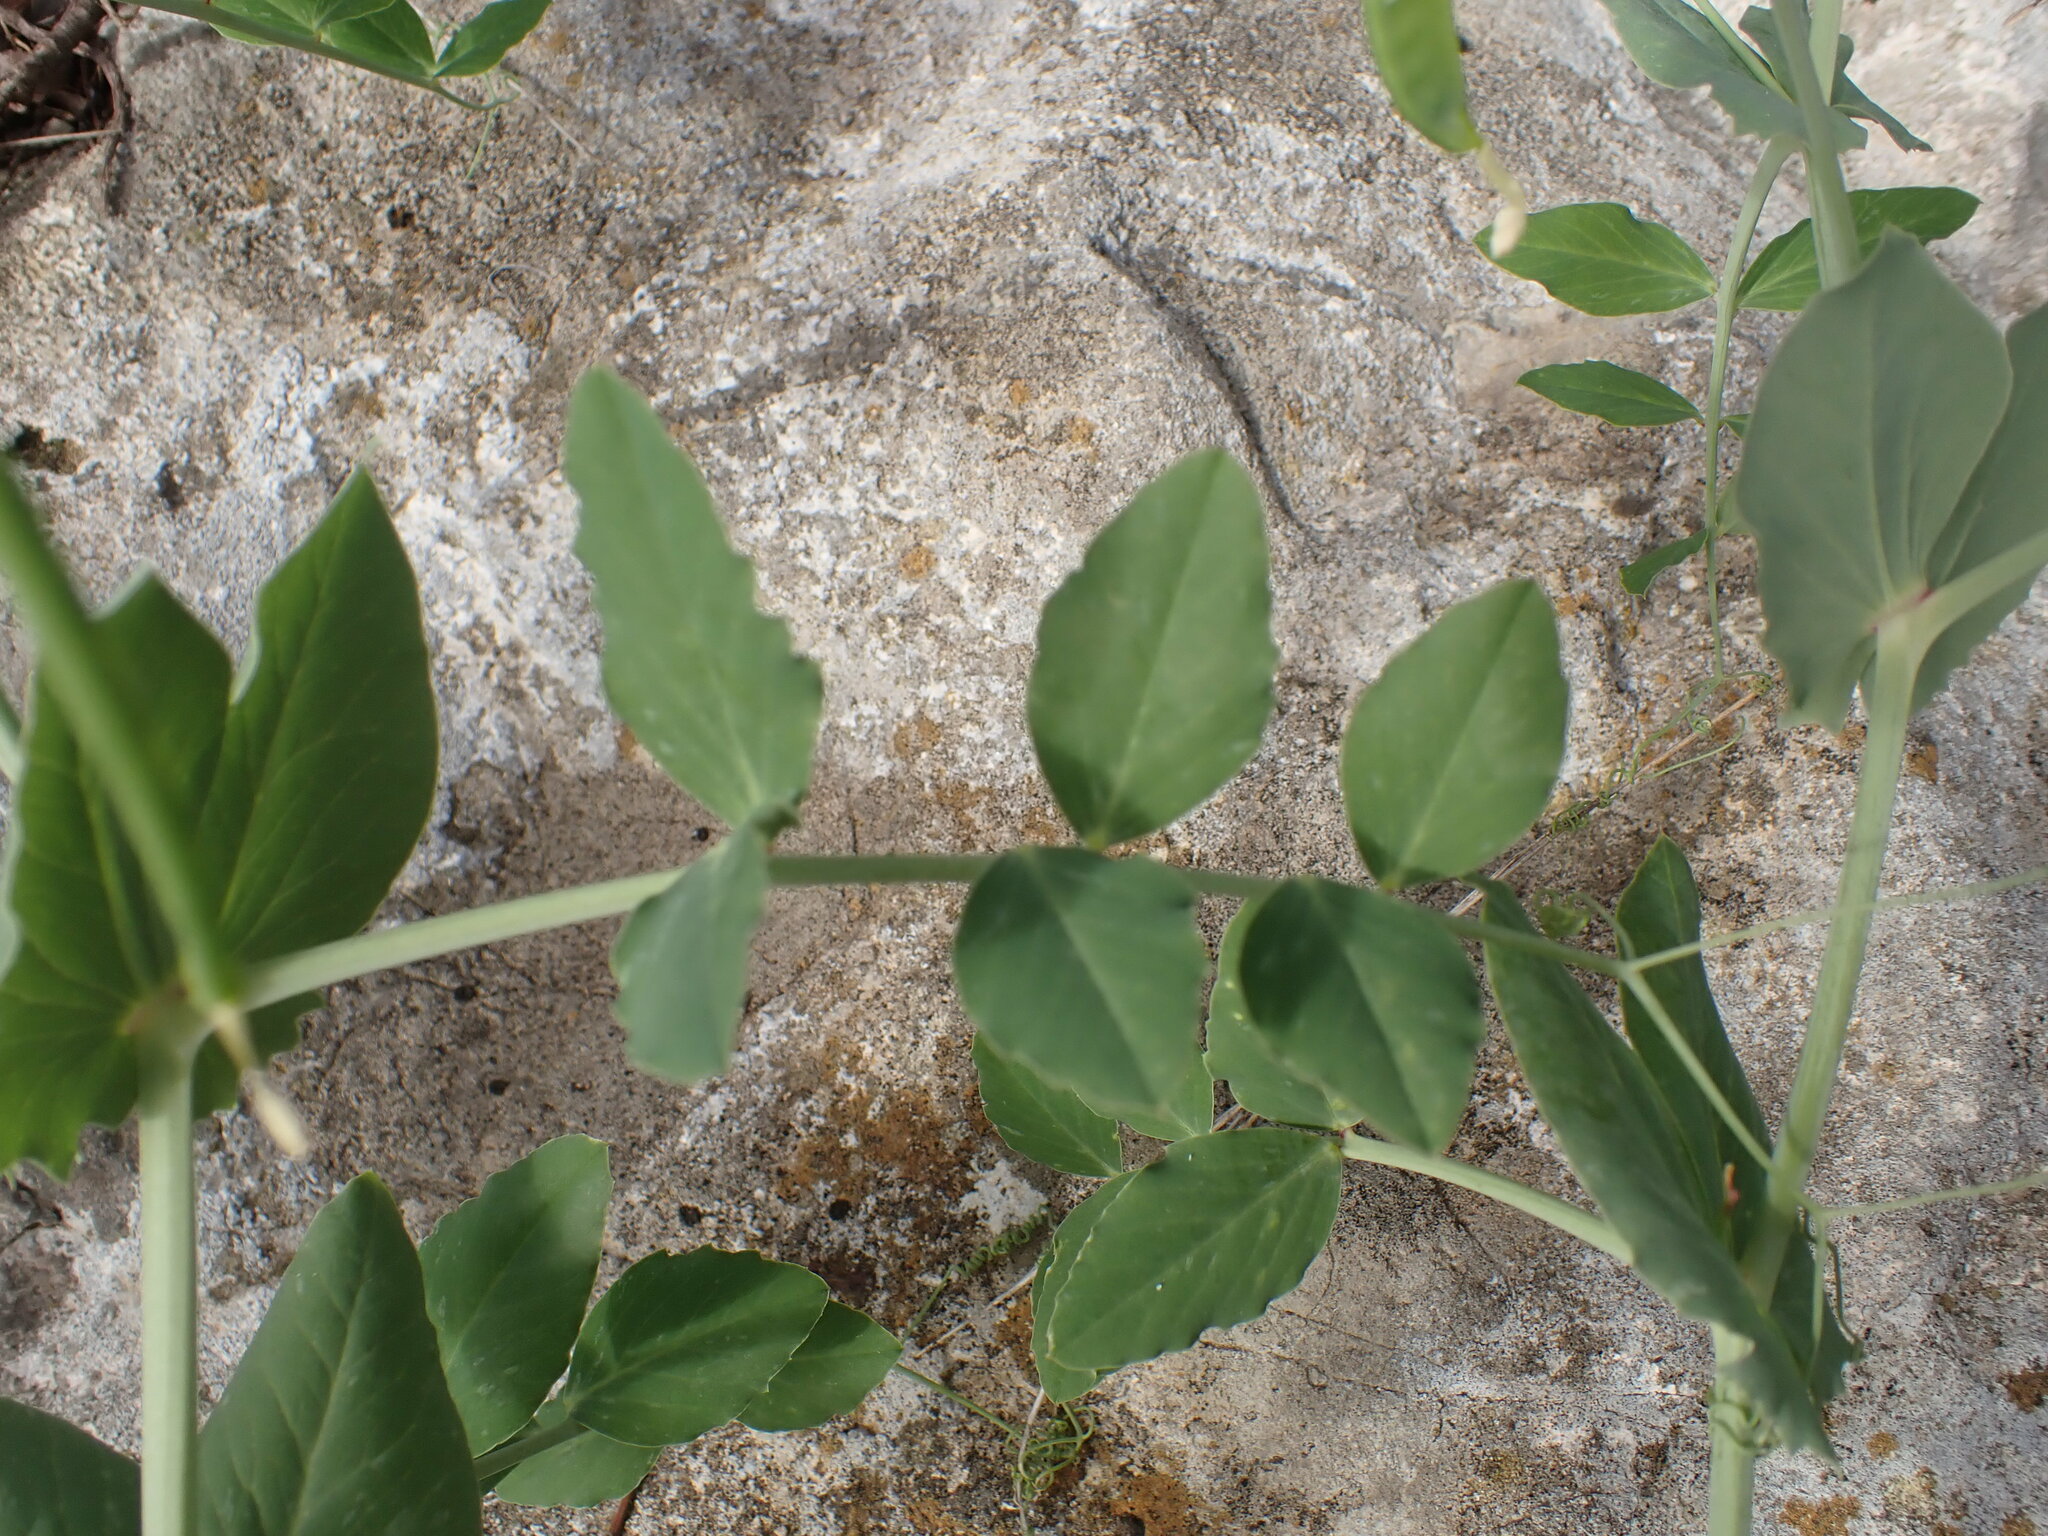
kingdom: Plantae
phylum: Tracheophyta
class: Magnoliopsida
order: Fabales
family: Fabaceae
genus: Lathyrus
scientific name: Lathyrus oleraceus
